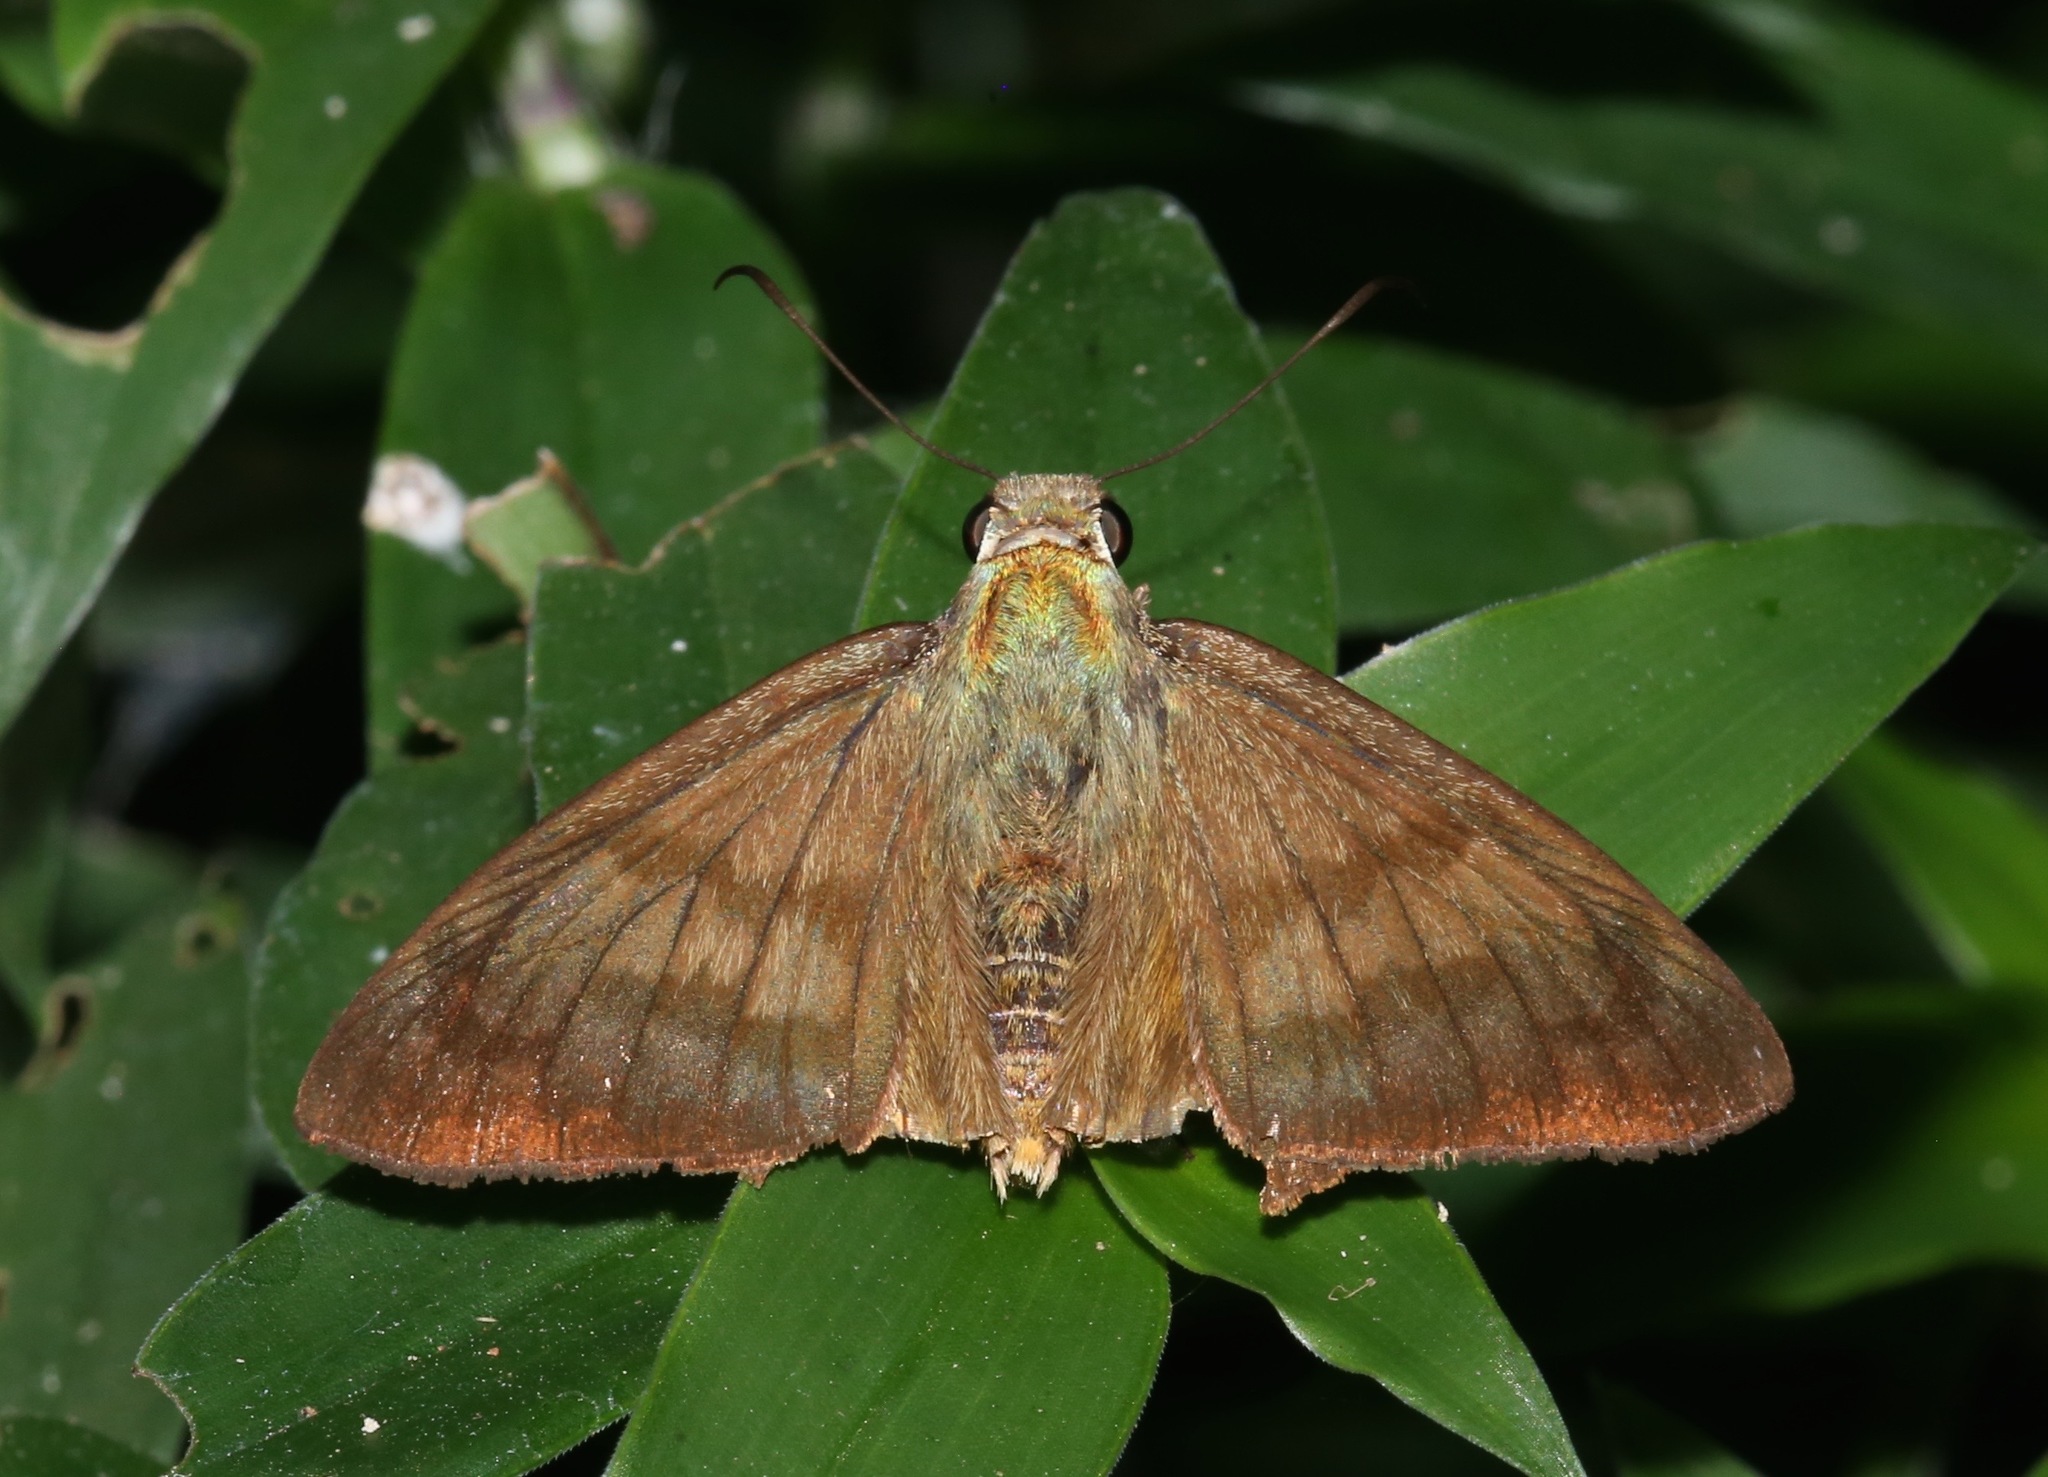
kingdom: Animalia
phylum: Arthropoda
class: Insecta
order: Lepidoptera
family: Hesperiidae
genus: Astraptes
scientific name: Astraptes anaphus
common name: Yellow-tipped flasher
